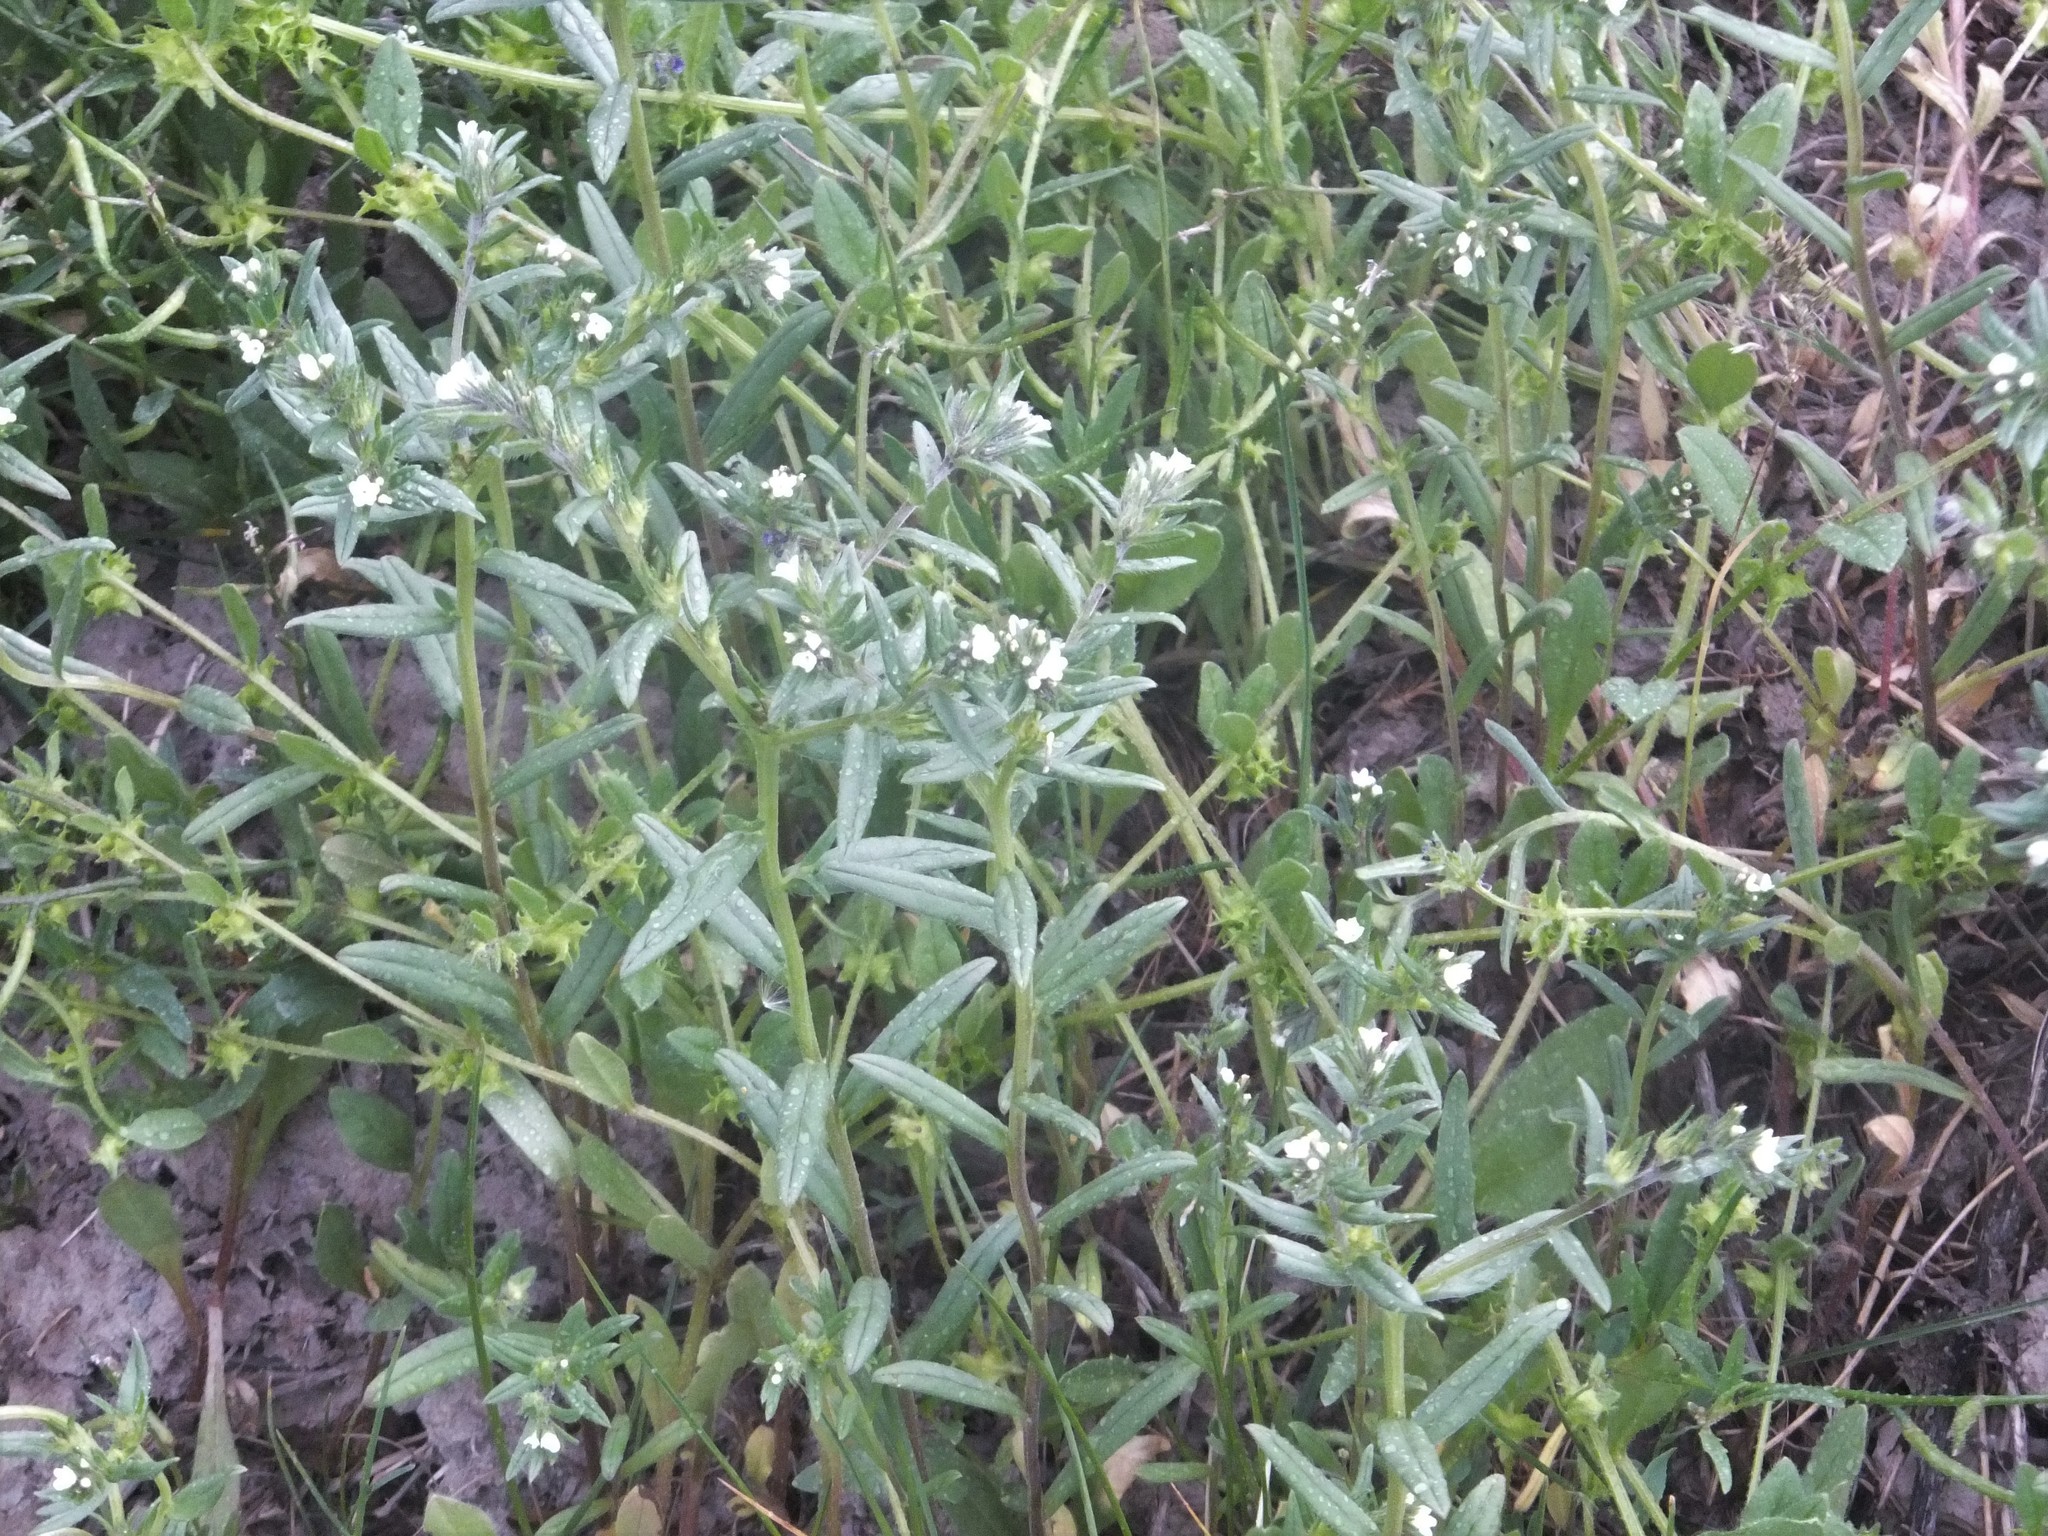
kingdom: Plantae
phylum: Tracheophyta
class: Magnoliopsida
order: Boraginales
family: Boraginaceae
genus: Buglossoides
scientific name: Buglossoides arvensis
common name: Corn gromwell
